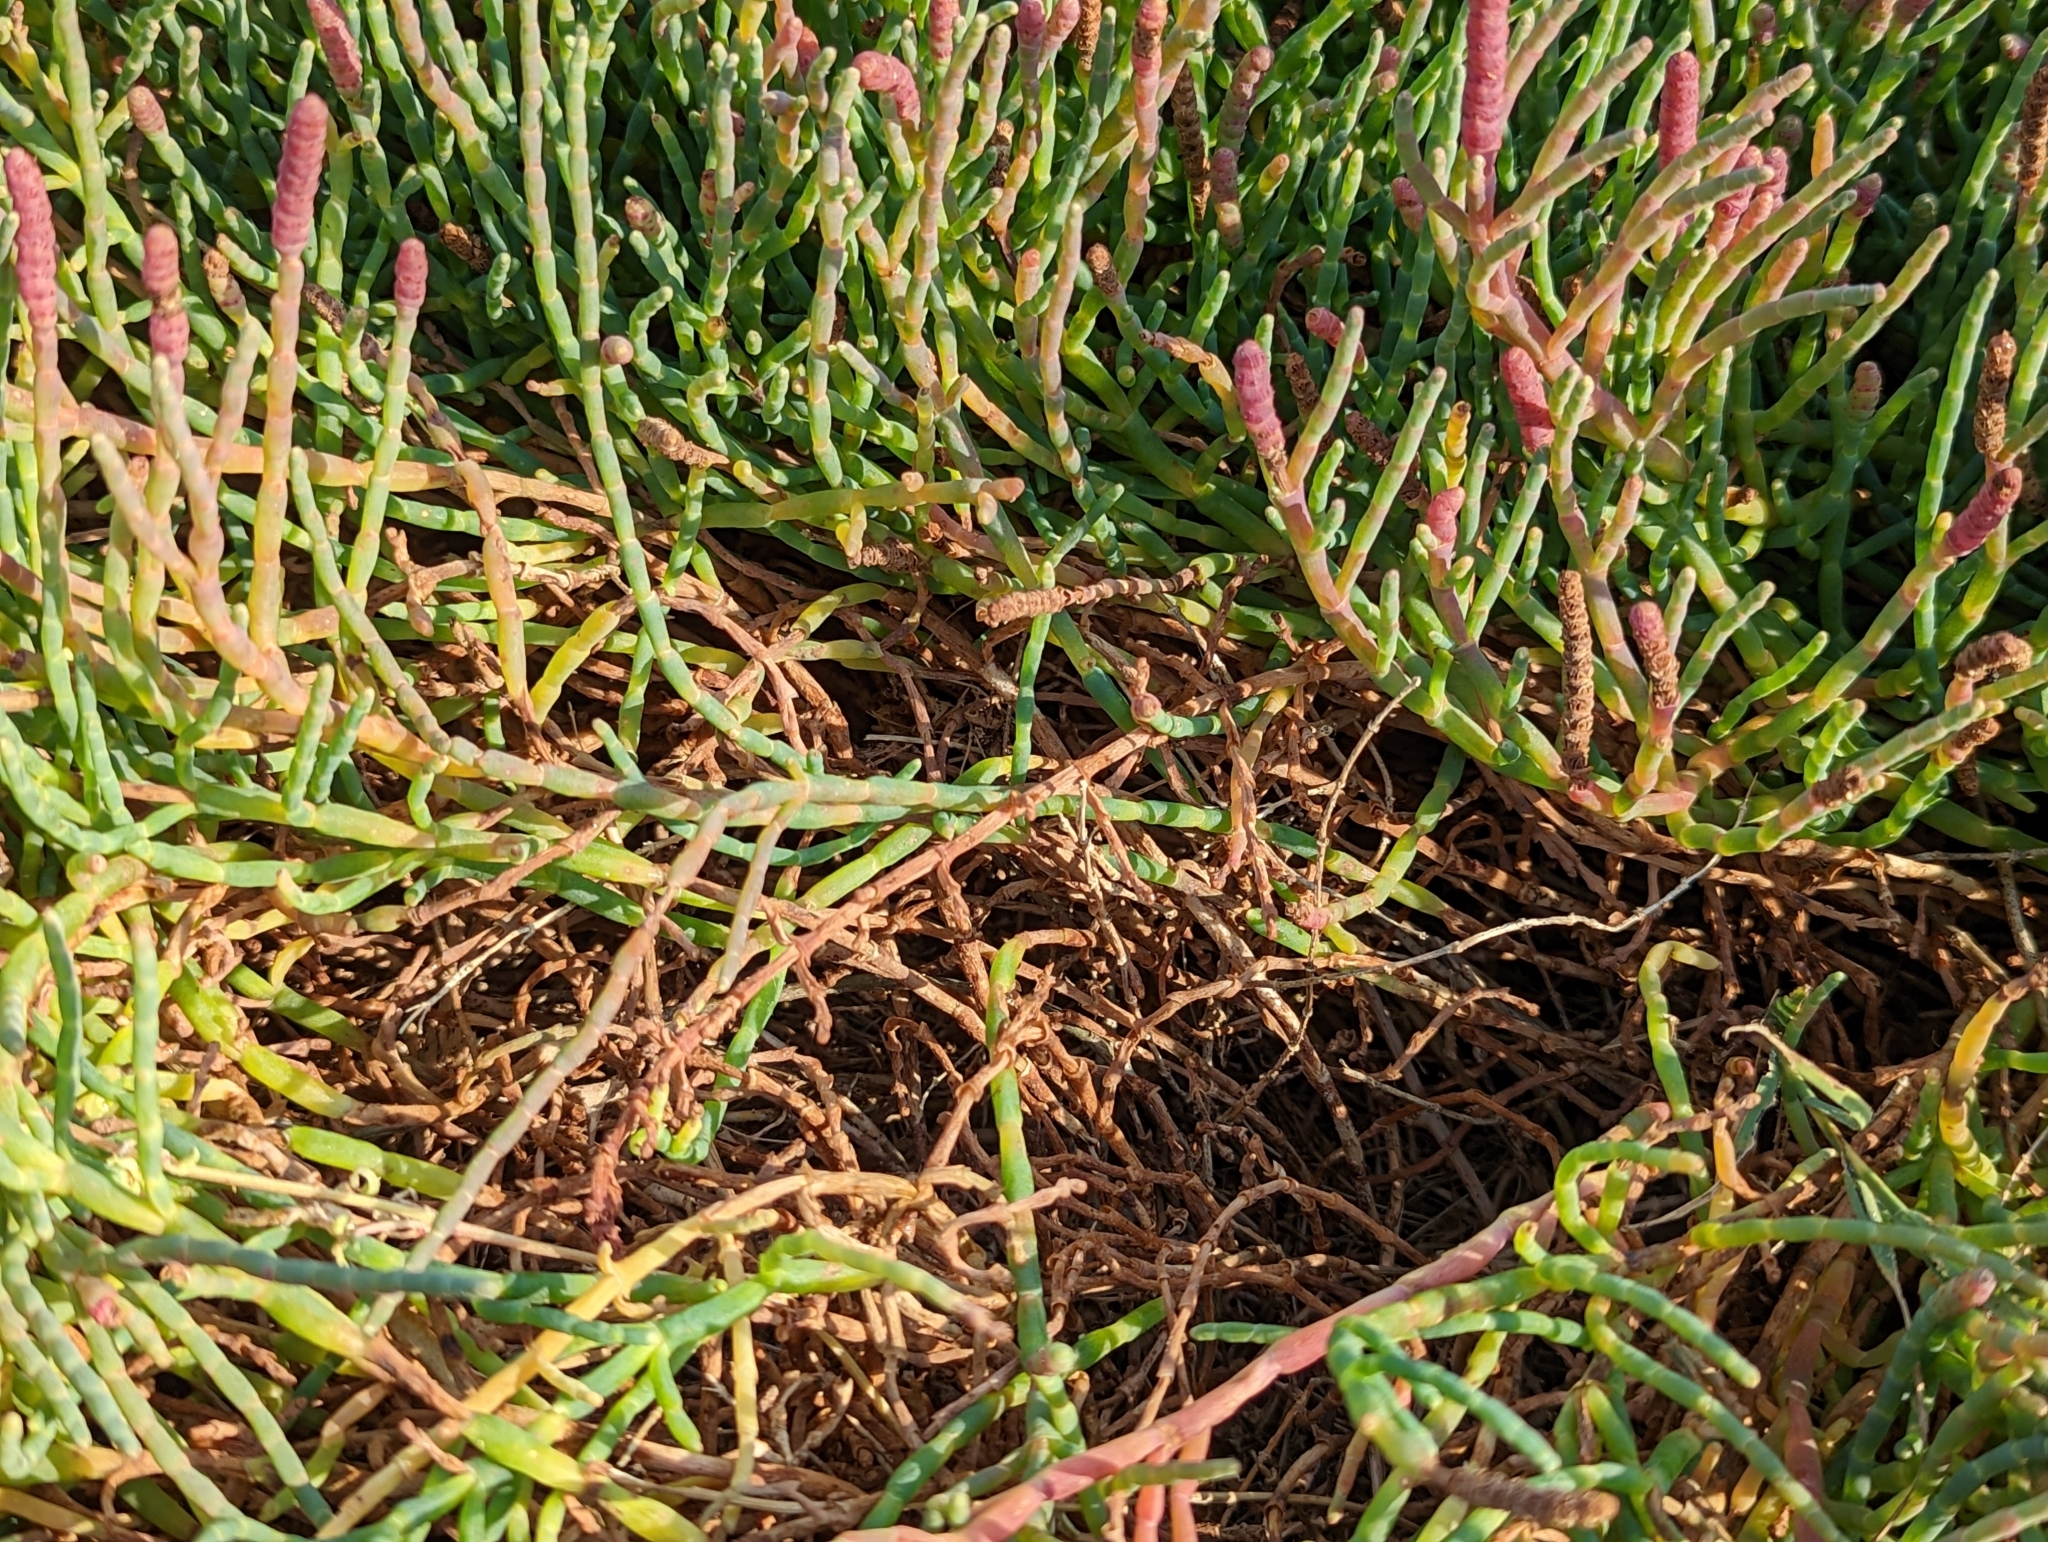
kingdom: Plantae
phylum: Tracheophyta
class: Magnoliopsida
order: Caryophyllales
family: Amaranthaceae
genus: Salicornia
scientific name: Salicornia pacifica
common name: Pacific glasswort
